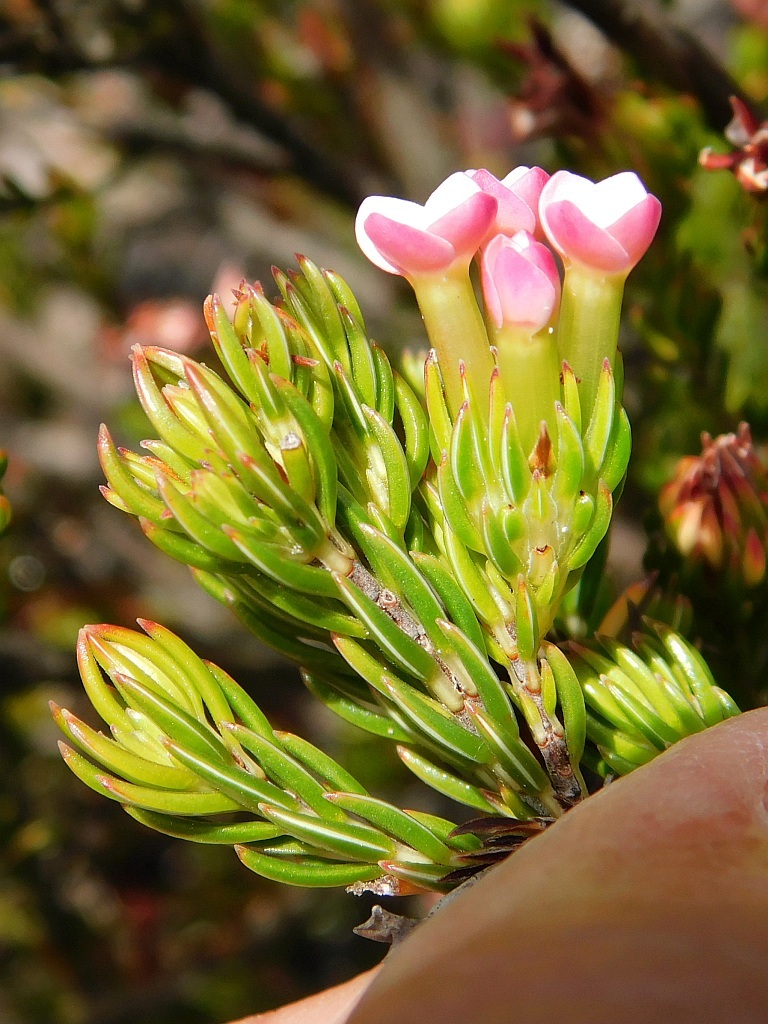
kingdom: Plantae
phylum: Tracheophyta
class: Magnoliopsida
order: Ericales
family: Ericaceae
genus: Erica
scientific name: Erica fastigiata
